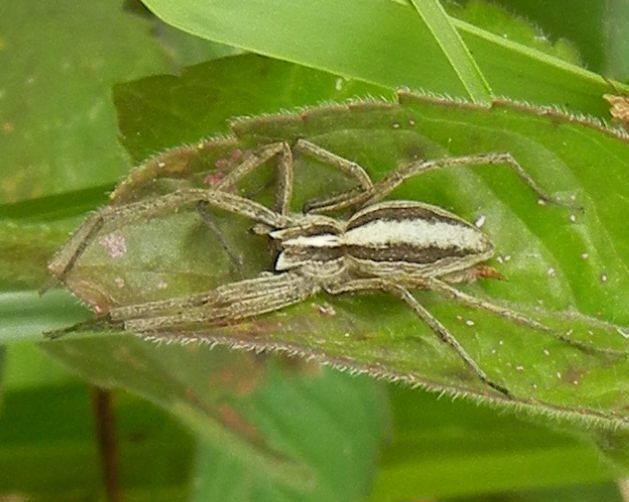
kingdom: Animalia
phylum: Arthropoda
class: Arachnida
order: Araneae
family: Pisauridae
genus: Pisaura
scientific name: Pisaura mirabilis
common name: Tent spider
